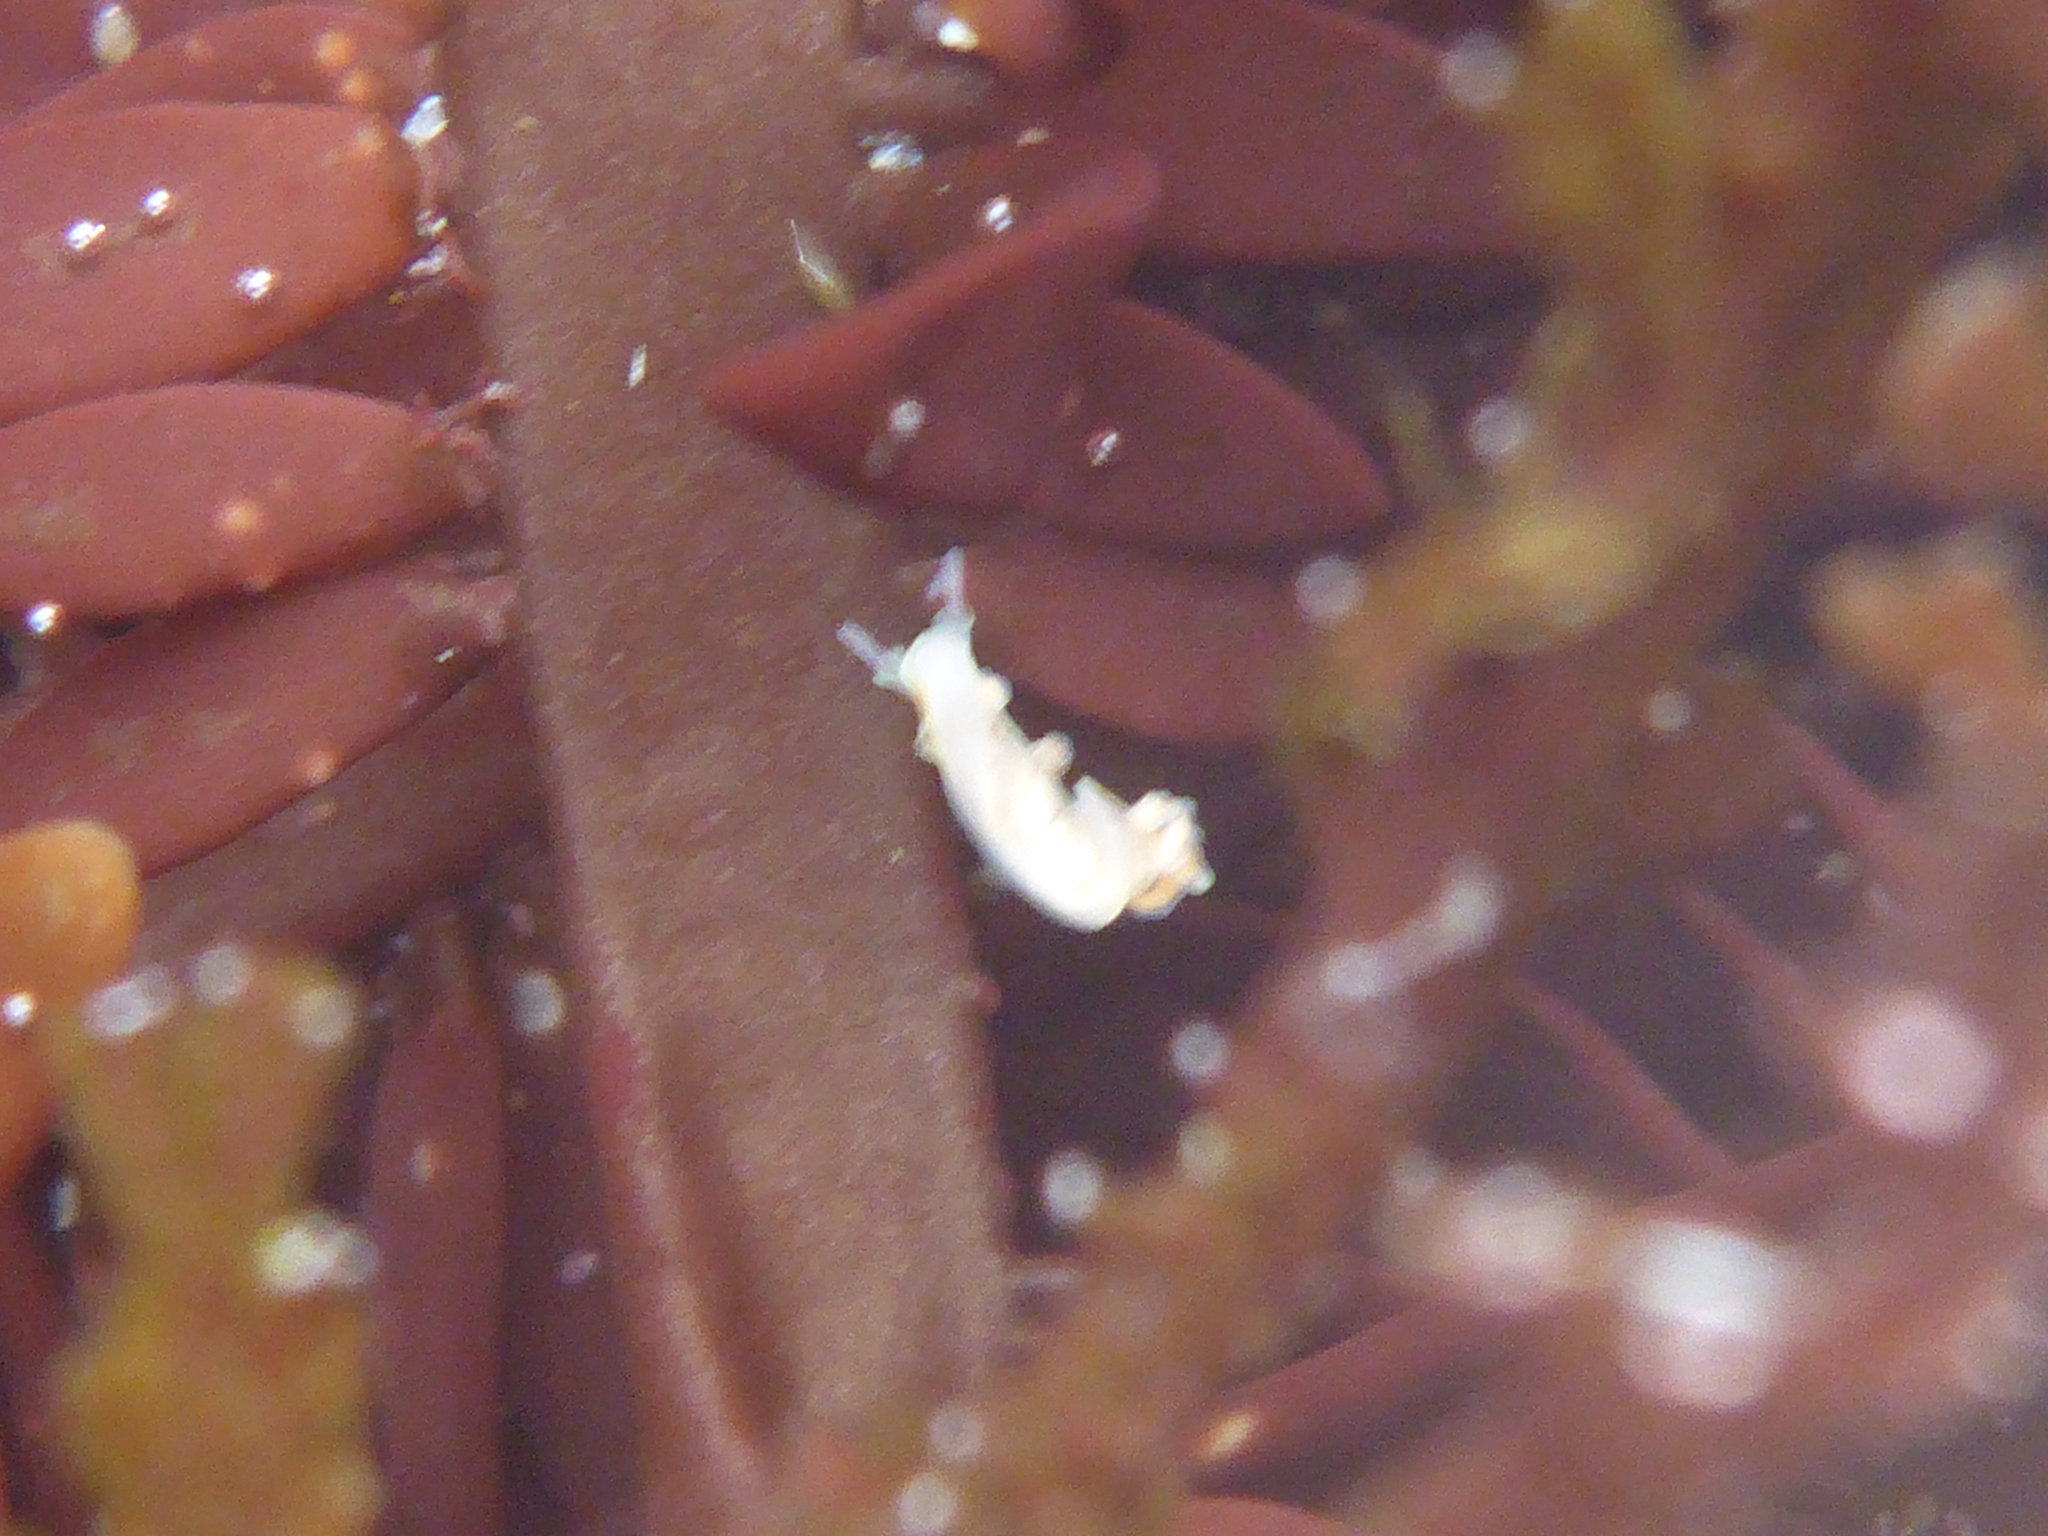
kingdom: Animalia
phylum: Mollusca
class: Gastropoda
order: Nudibranchia
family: Dotidae
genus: Doto
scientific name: Doto amyra
